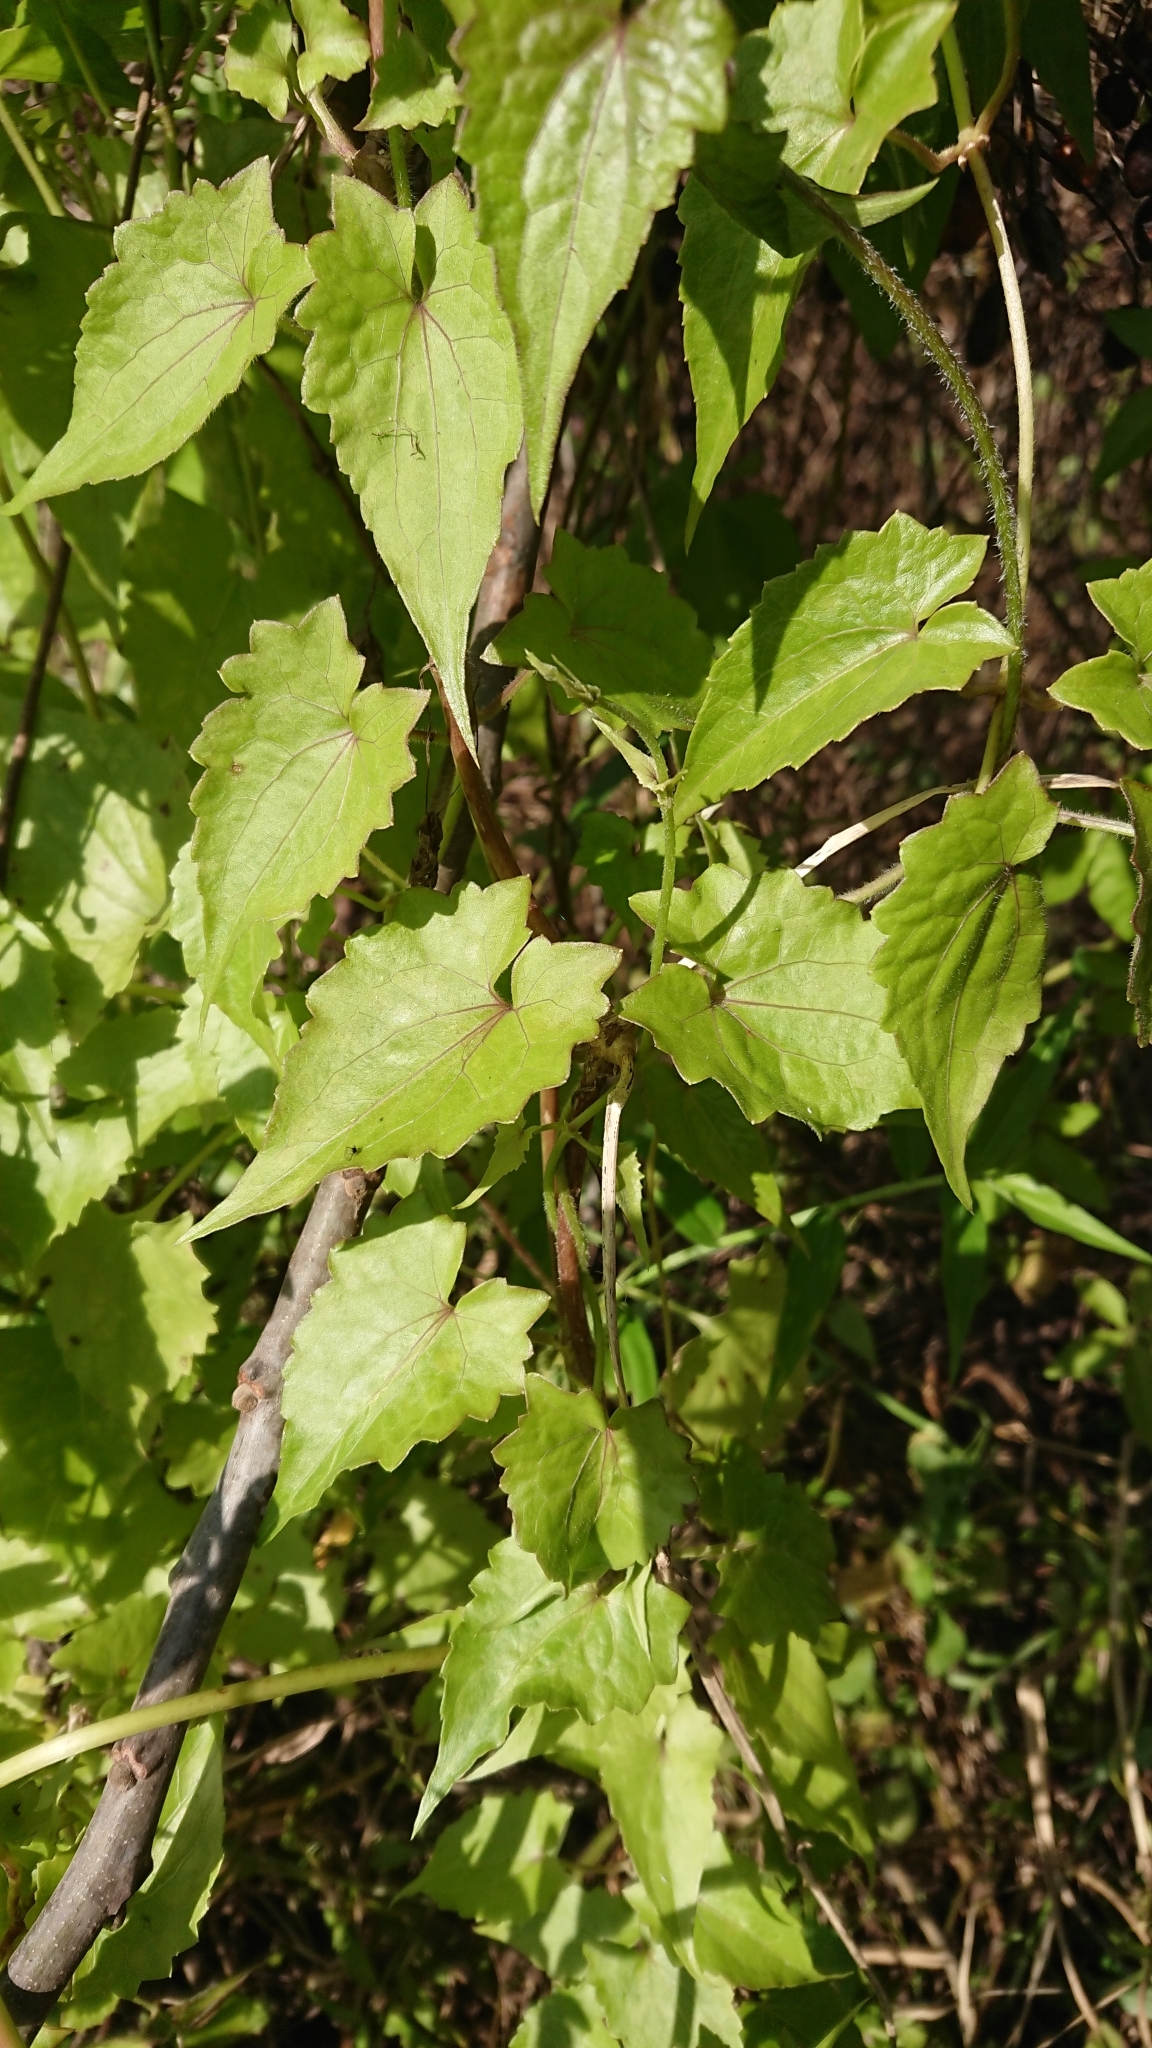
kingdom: Plantae
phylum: Tracheophyta
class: Magnoliopsida
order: Asterales
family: Asteraceae
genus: Mikania
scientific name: Mikania micrantha
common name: Mile-a-minute
